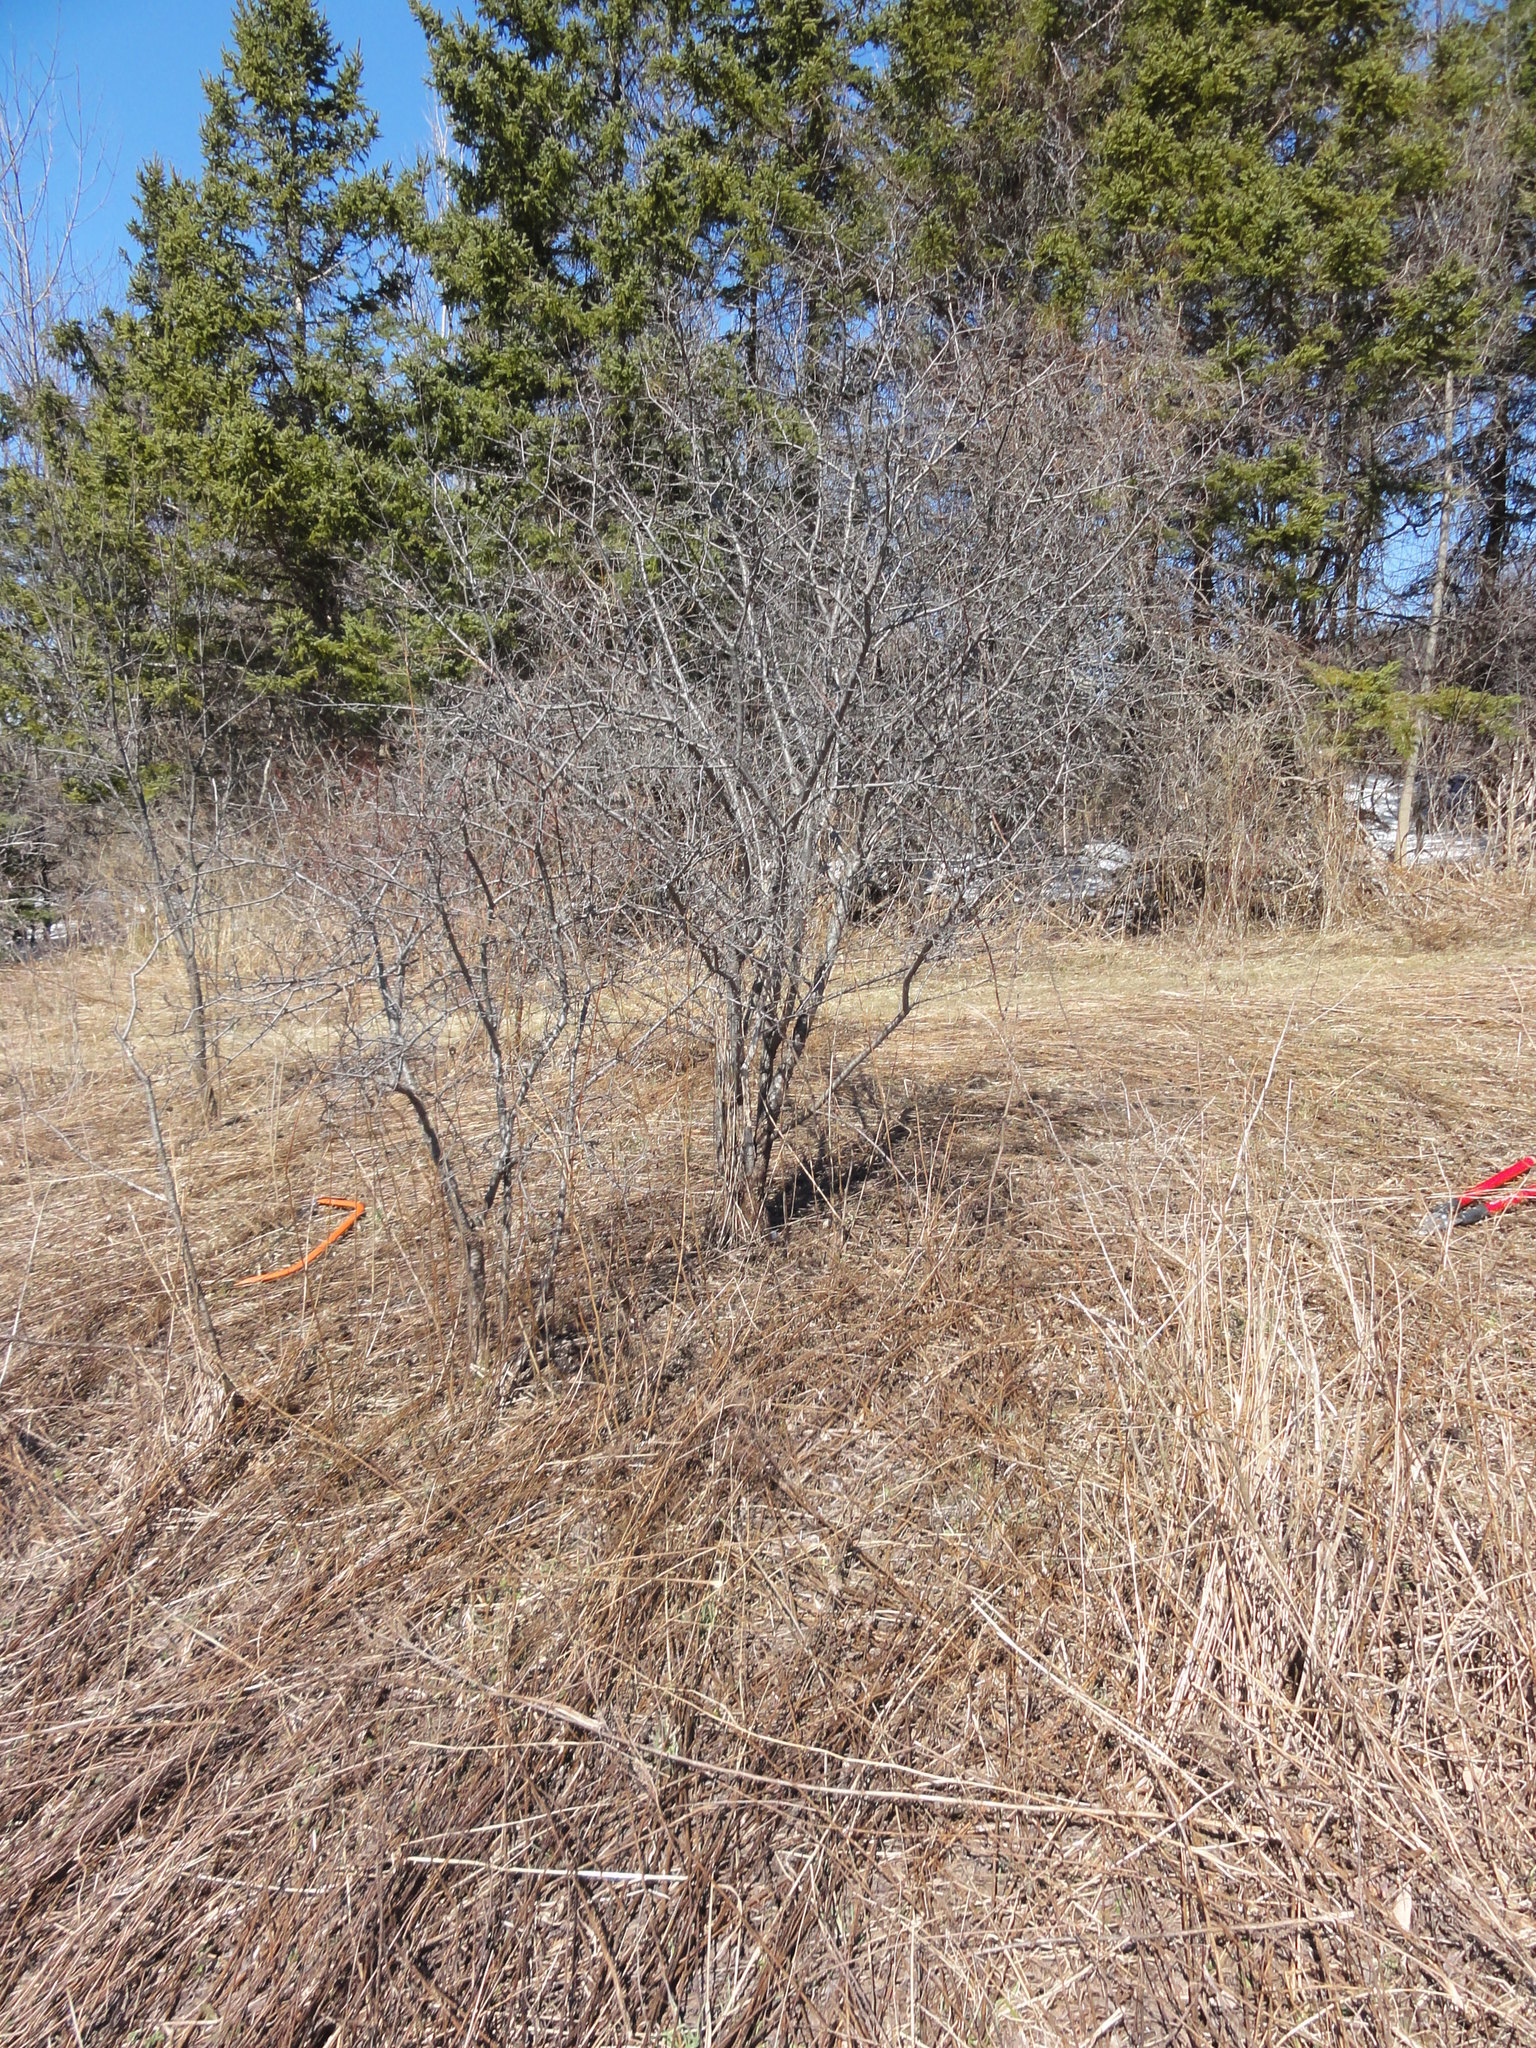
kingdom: Plantae
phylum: Tracheophyta
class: Magnoliopsida
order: Rosales
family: Rhamnaceae
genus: Rhamnus
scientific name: Rhamnus cathartica
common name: Common buckthorn
